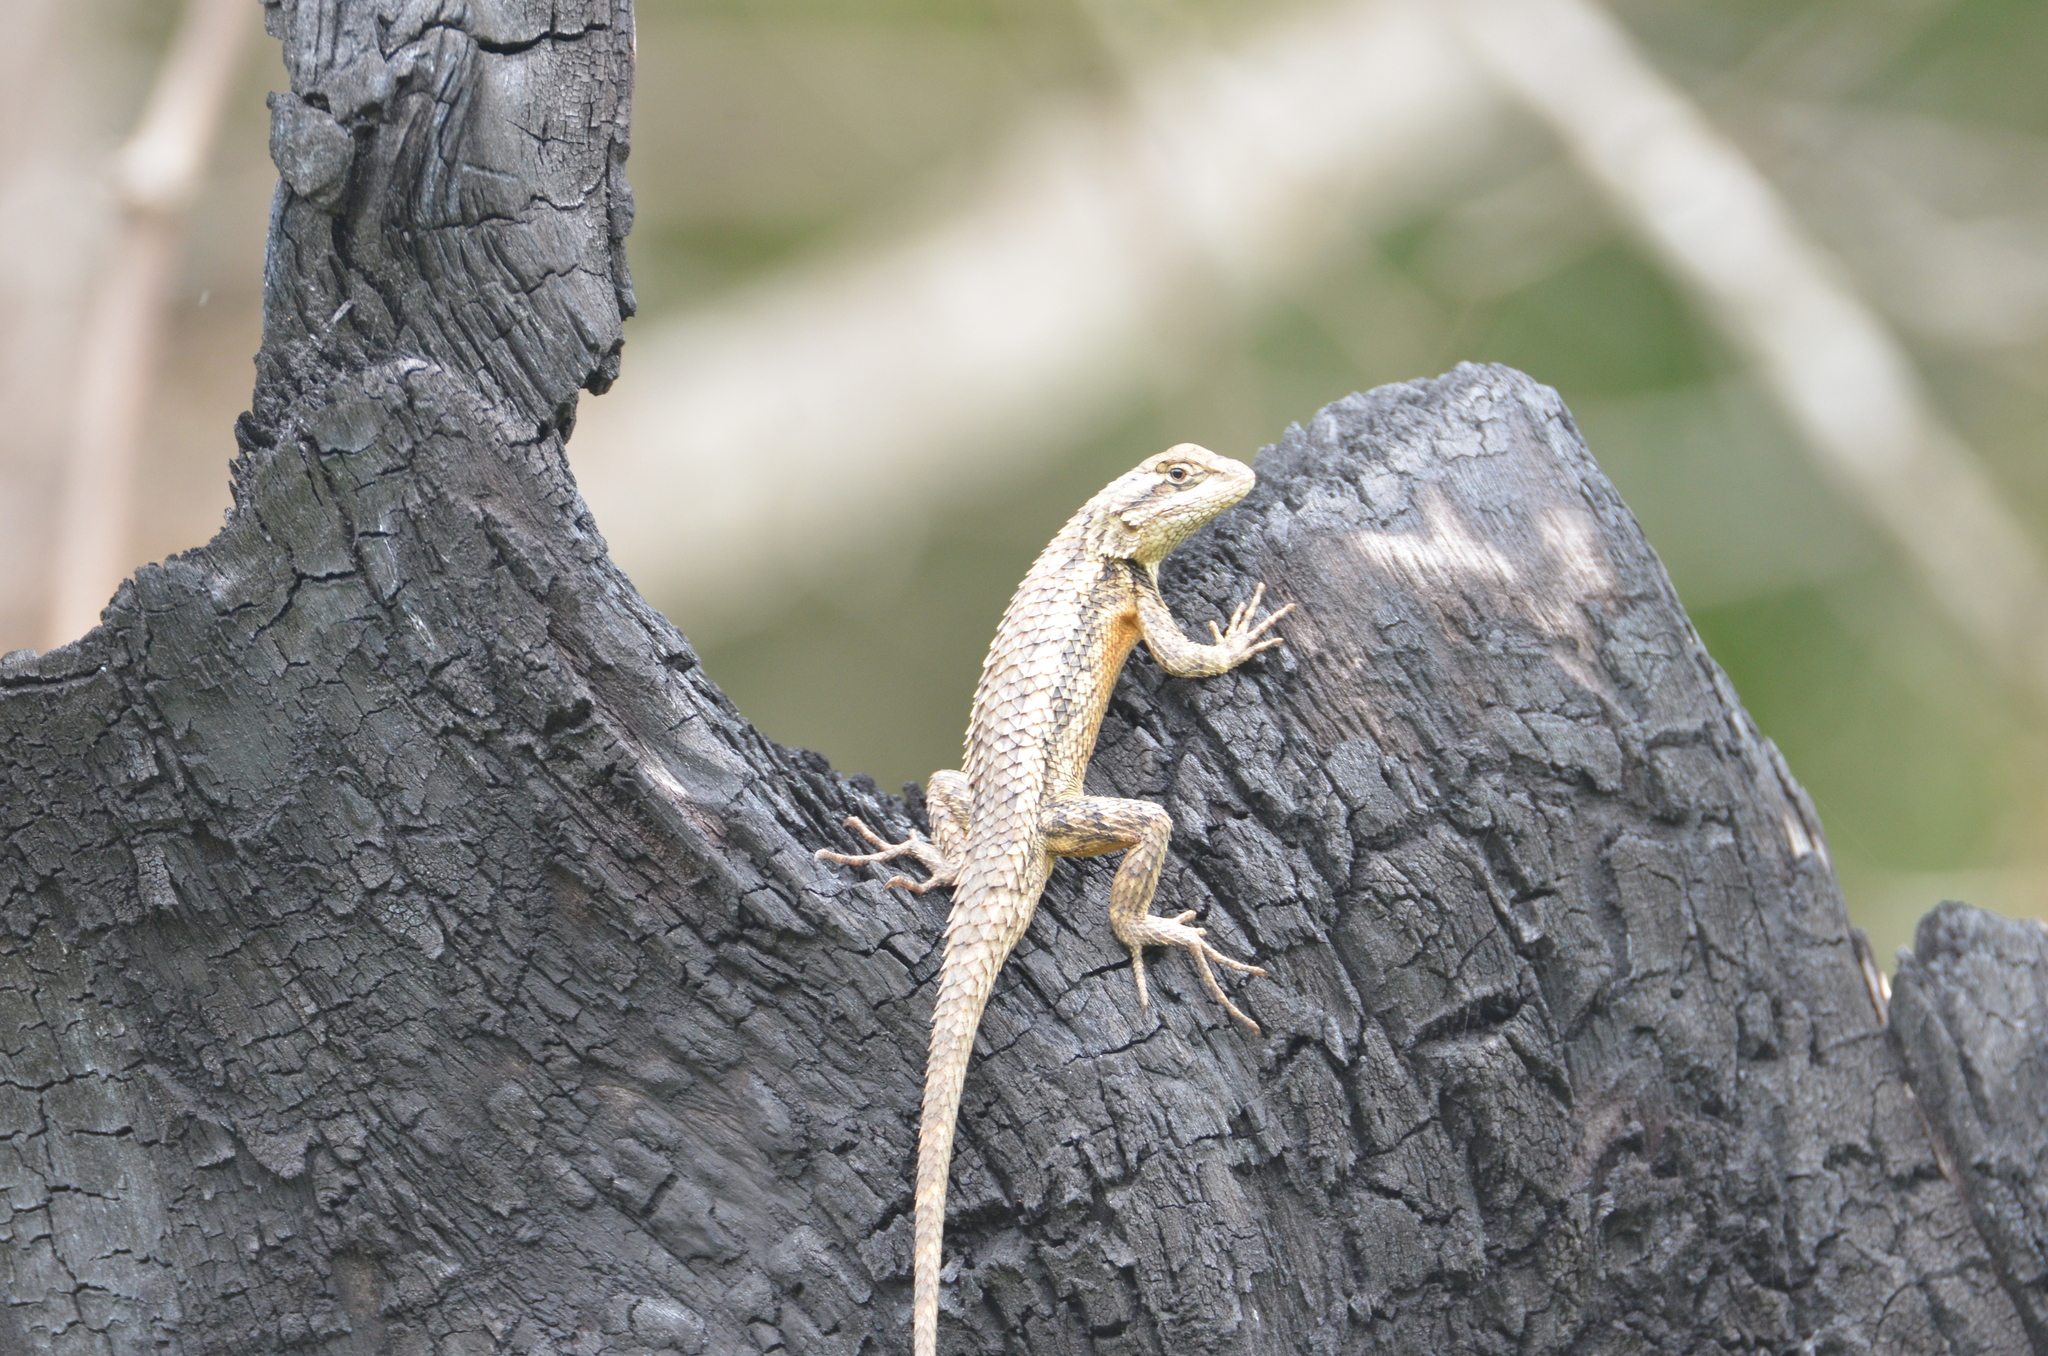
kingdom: Animalia
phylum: Chordata
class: Squamata
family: Phrynosomatidae
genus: Sceloporus
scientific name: Sceloporus olivaceus
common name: Texas spiny lizard
